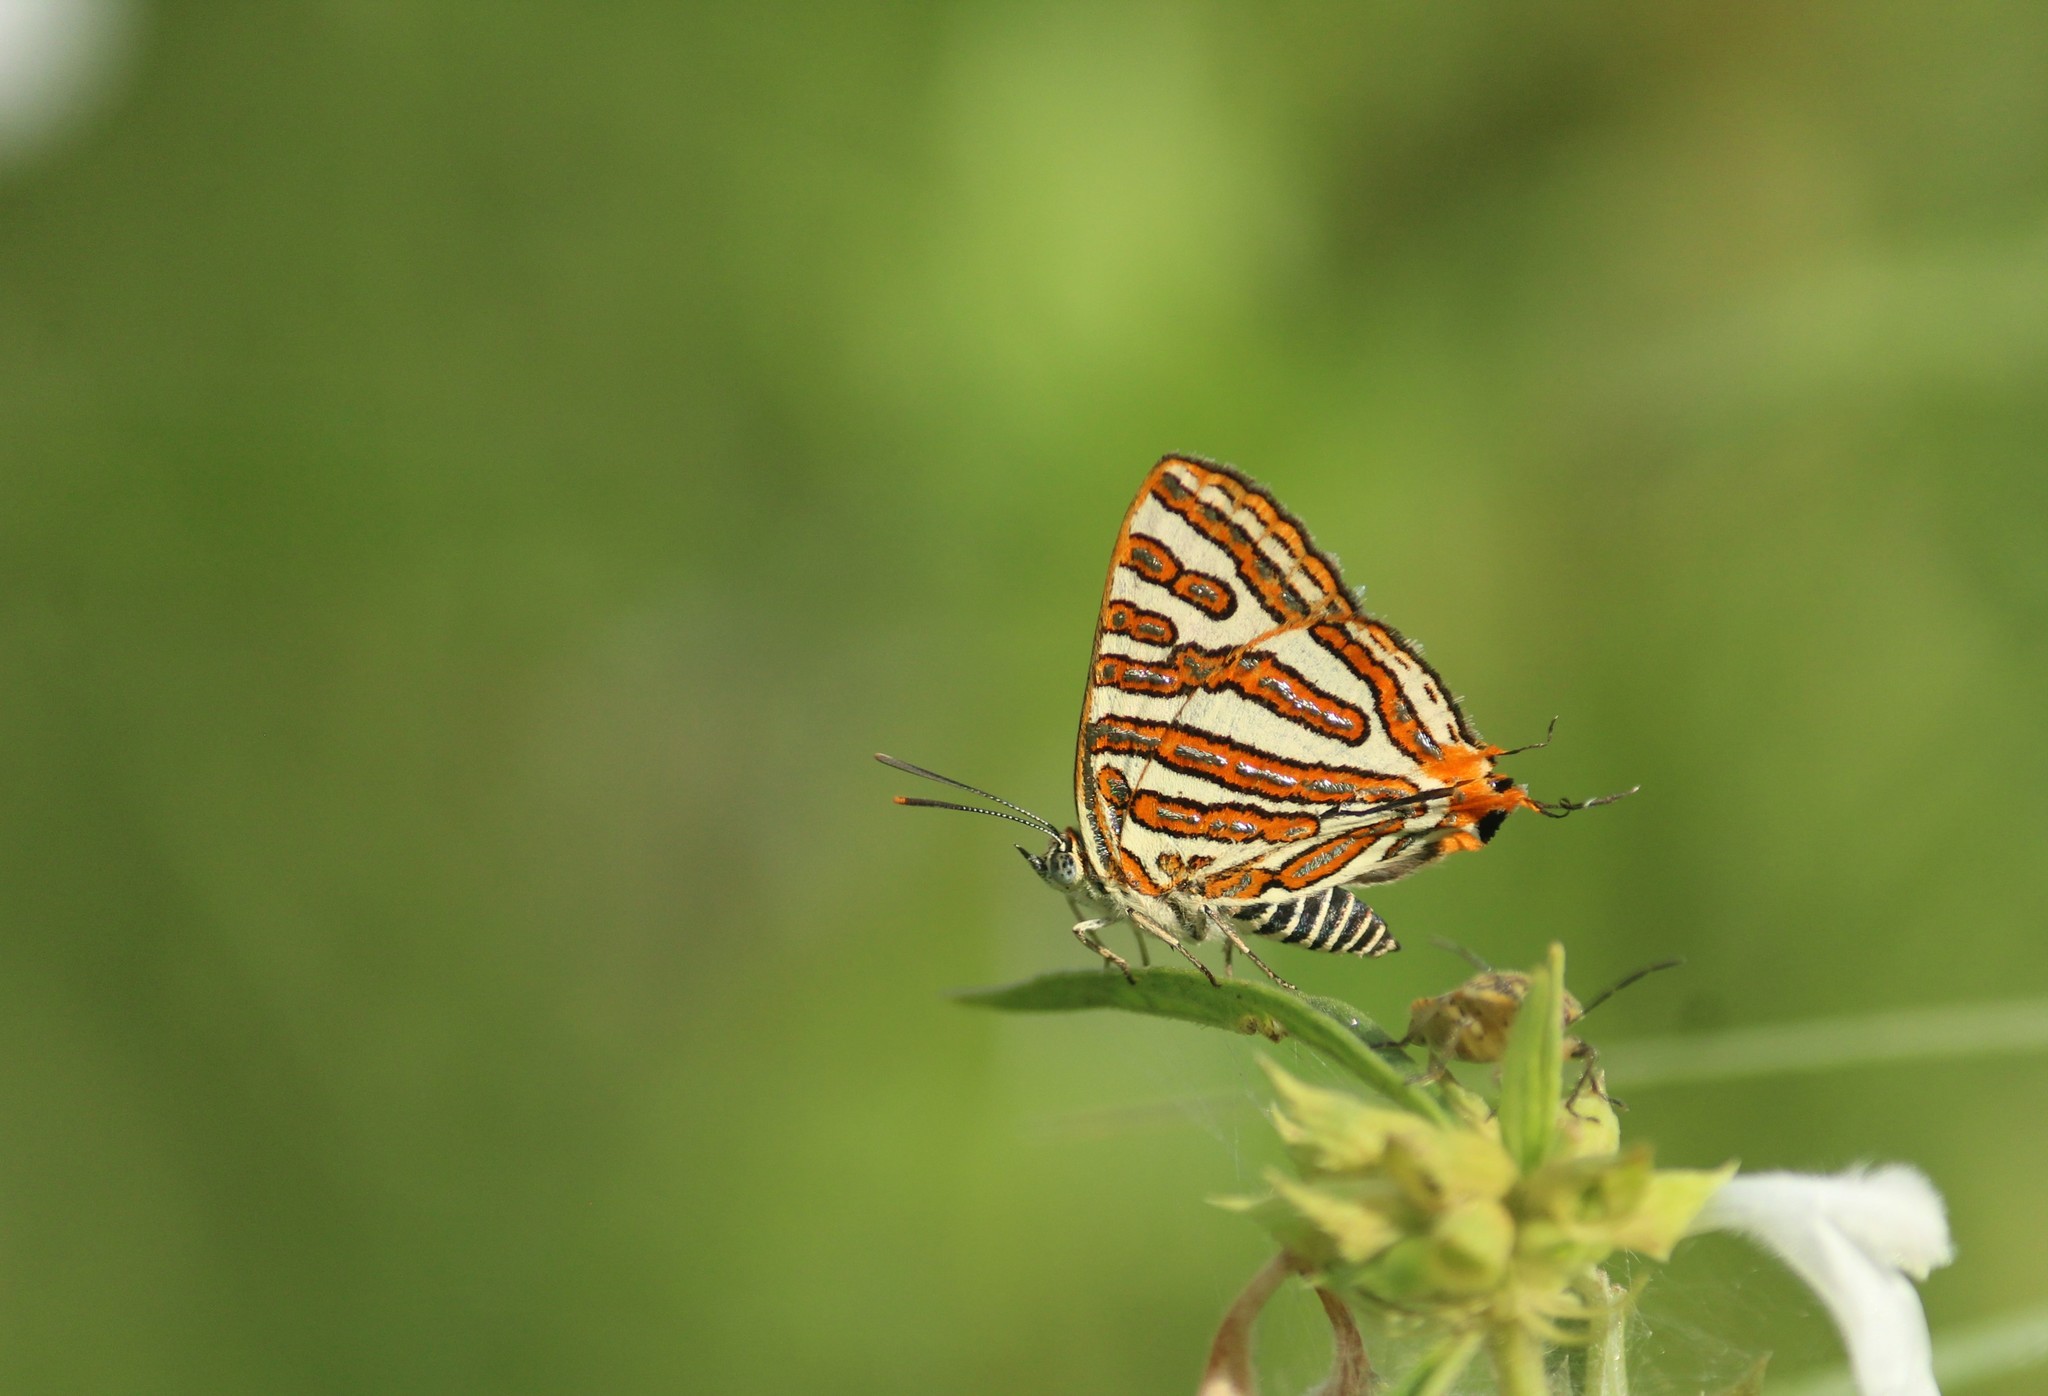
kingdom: Animalia
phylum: Arthropoda
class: Insecta
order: Lepidoptera
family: Lycaenidae
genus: Cigaritis
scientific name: Cigaritis vulcanus
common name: Common silverline
